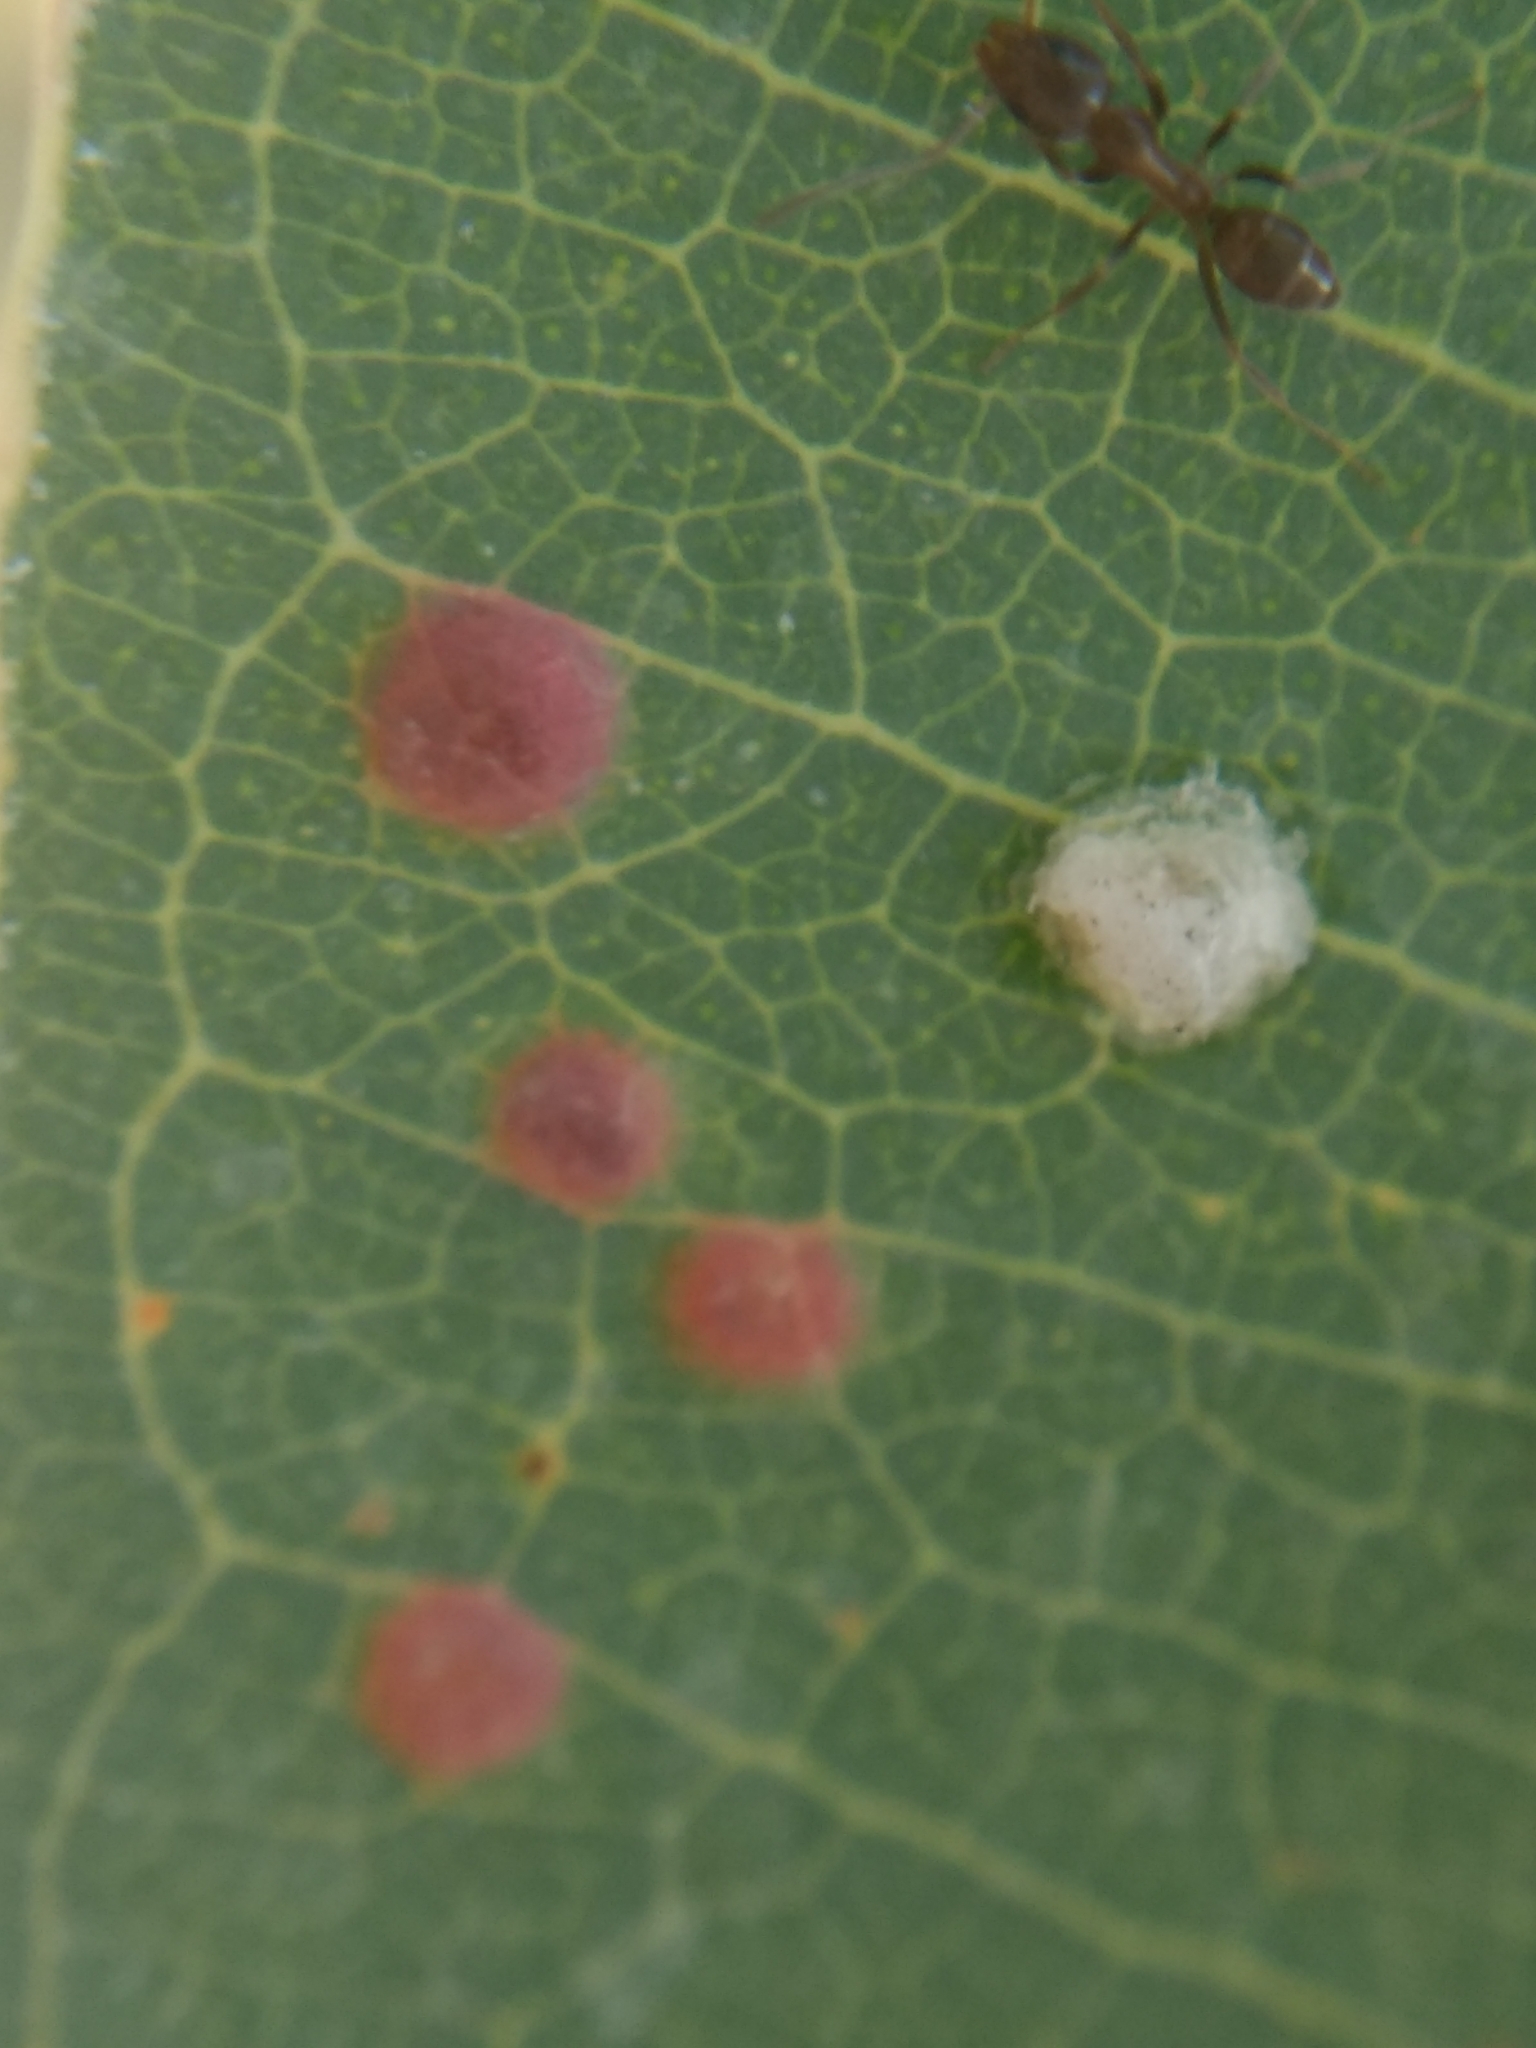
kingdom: Animalia
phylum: Arthropoda
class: Insecta
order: Hemiptera
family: Aphalaridae
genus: Glycaspis
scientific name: Glycaspis brimblecombei
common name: Red gum lerp psyllid
